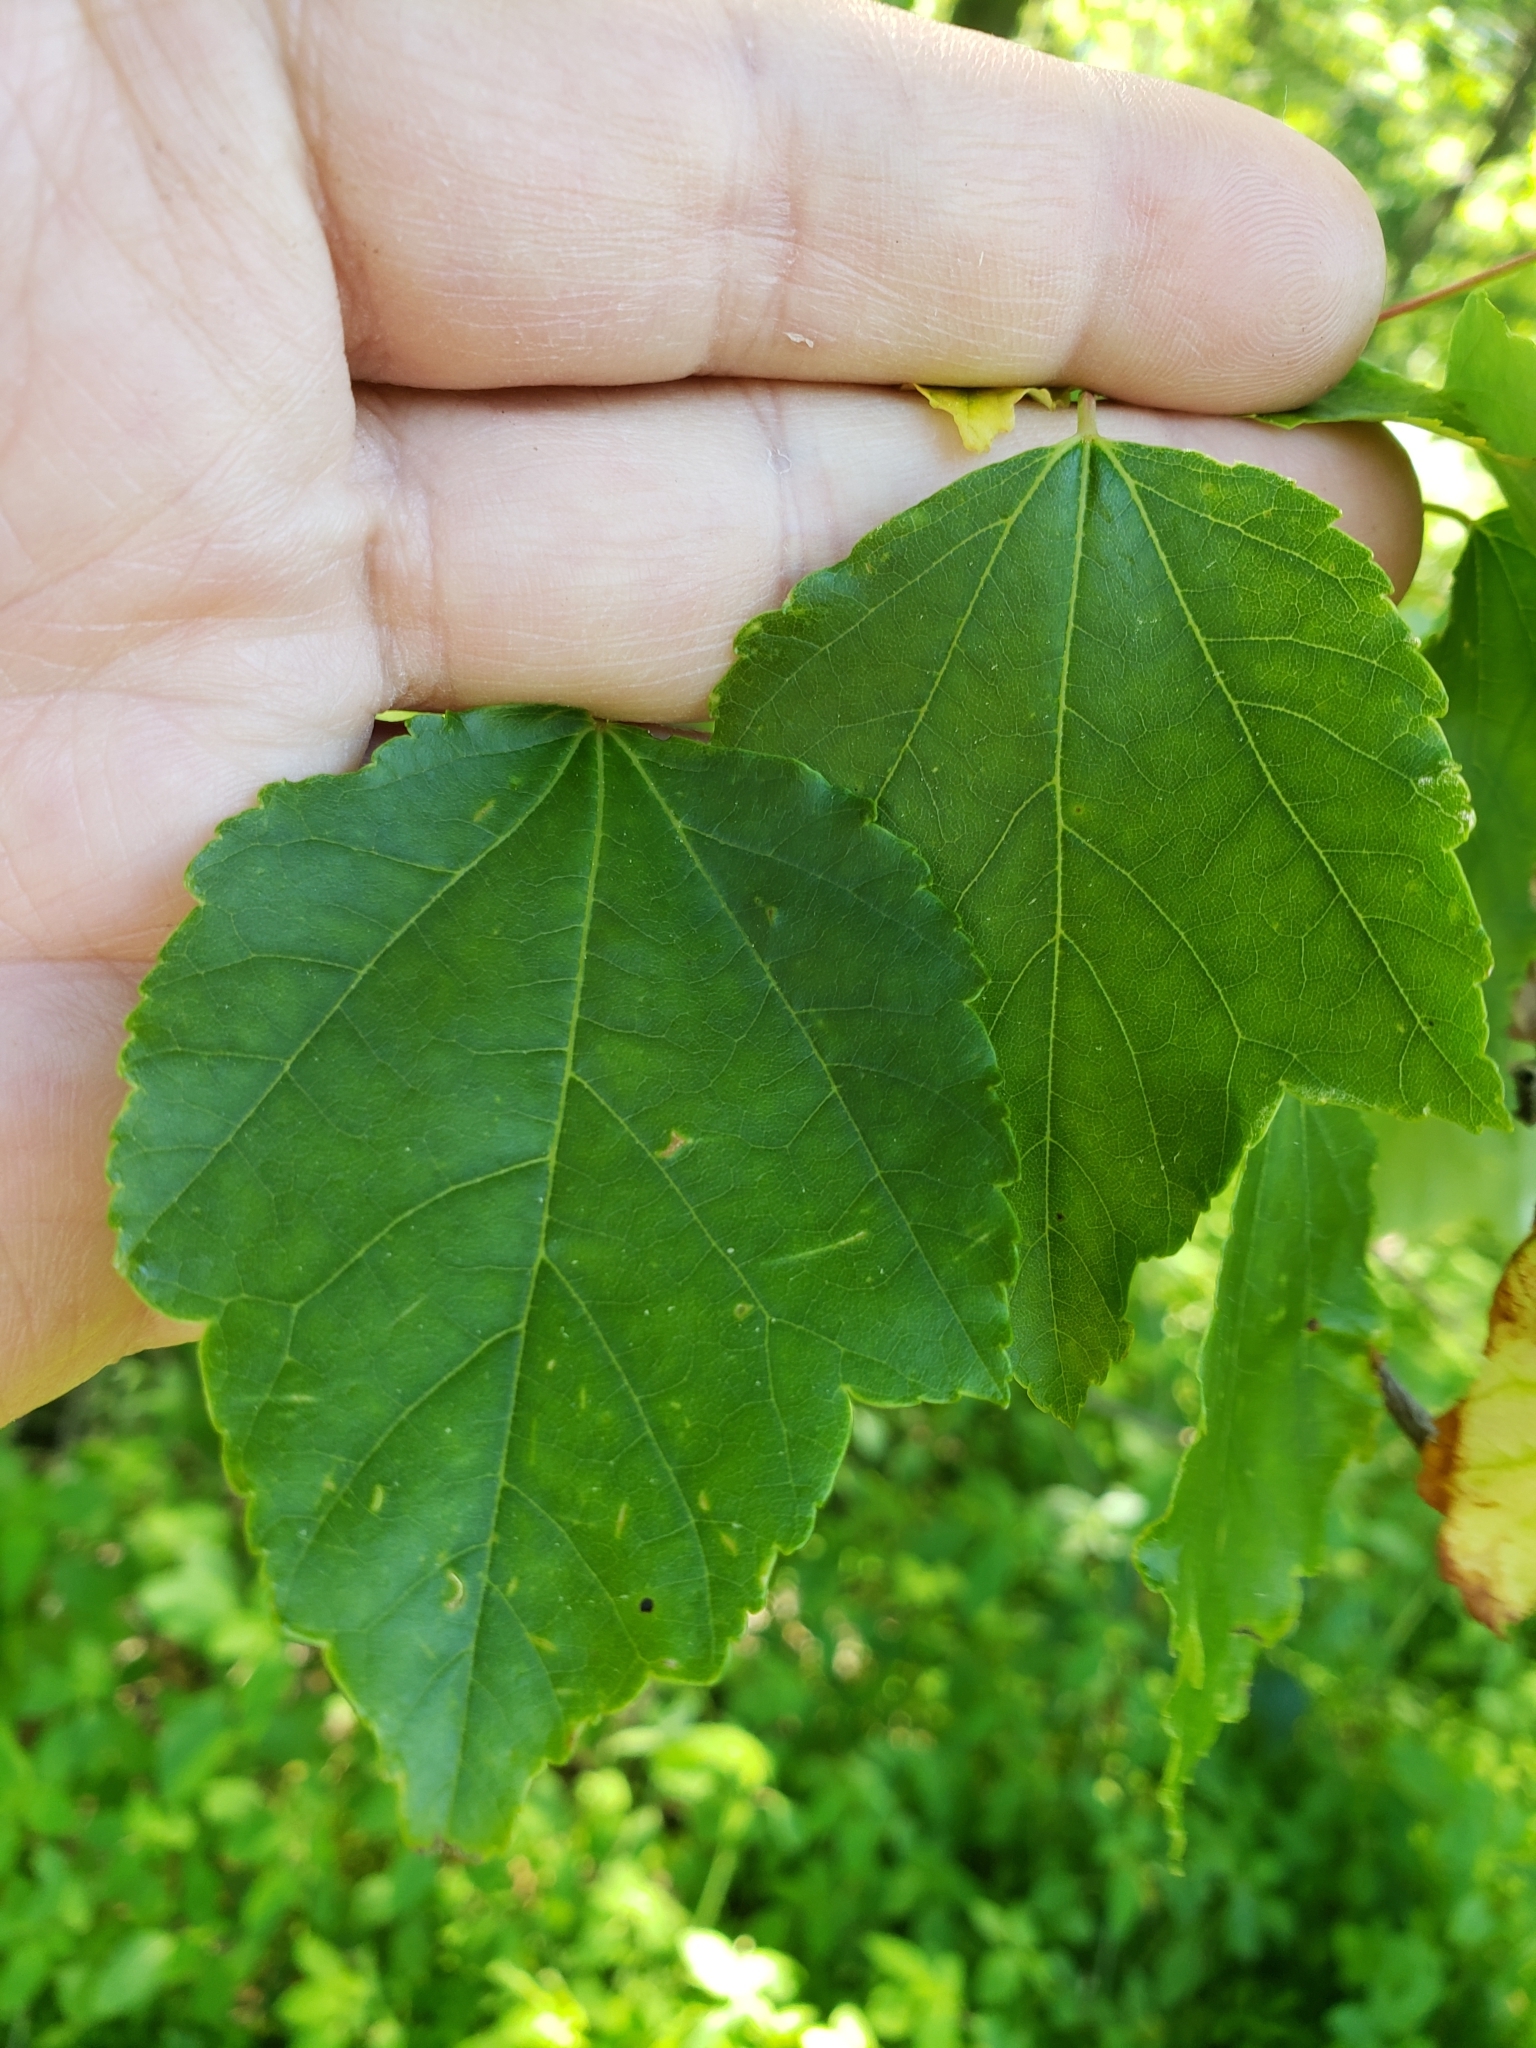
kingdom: Plantae
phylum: Tracheophyta
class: Magnoliopsida
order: Sapindales
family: Sapindaceae
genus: Acer
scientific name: Acer rubrum
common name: Red maple
